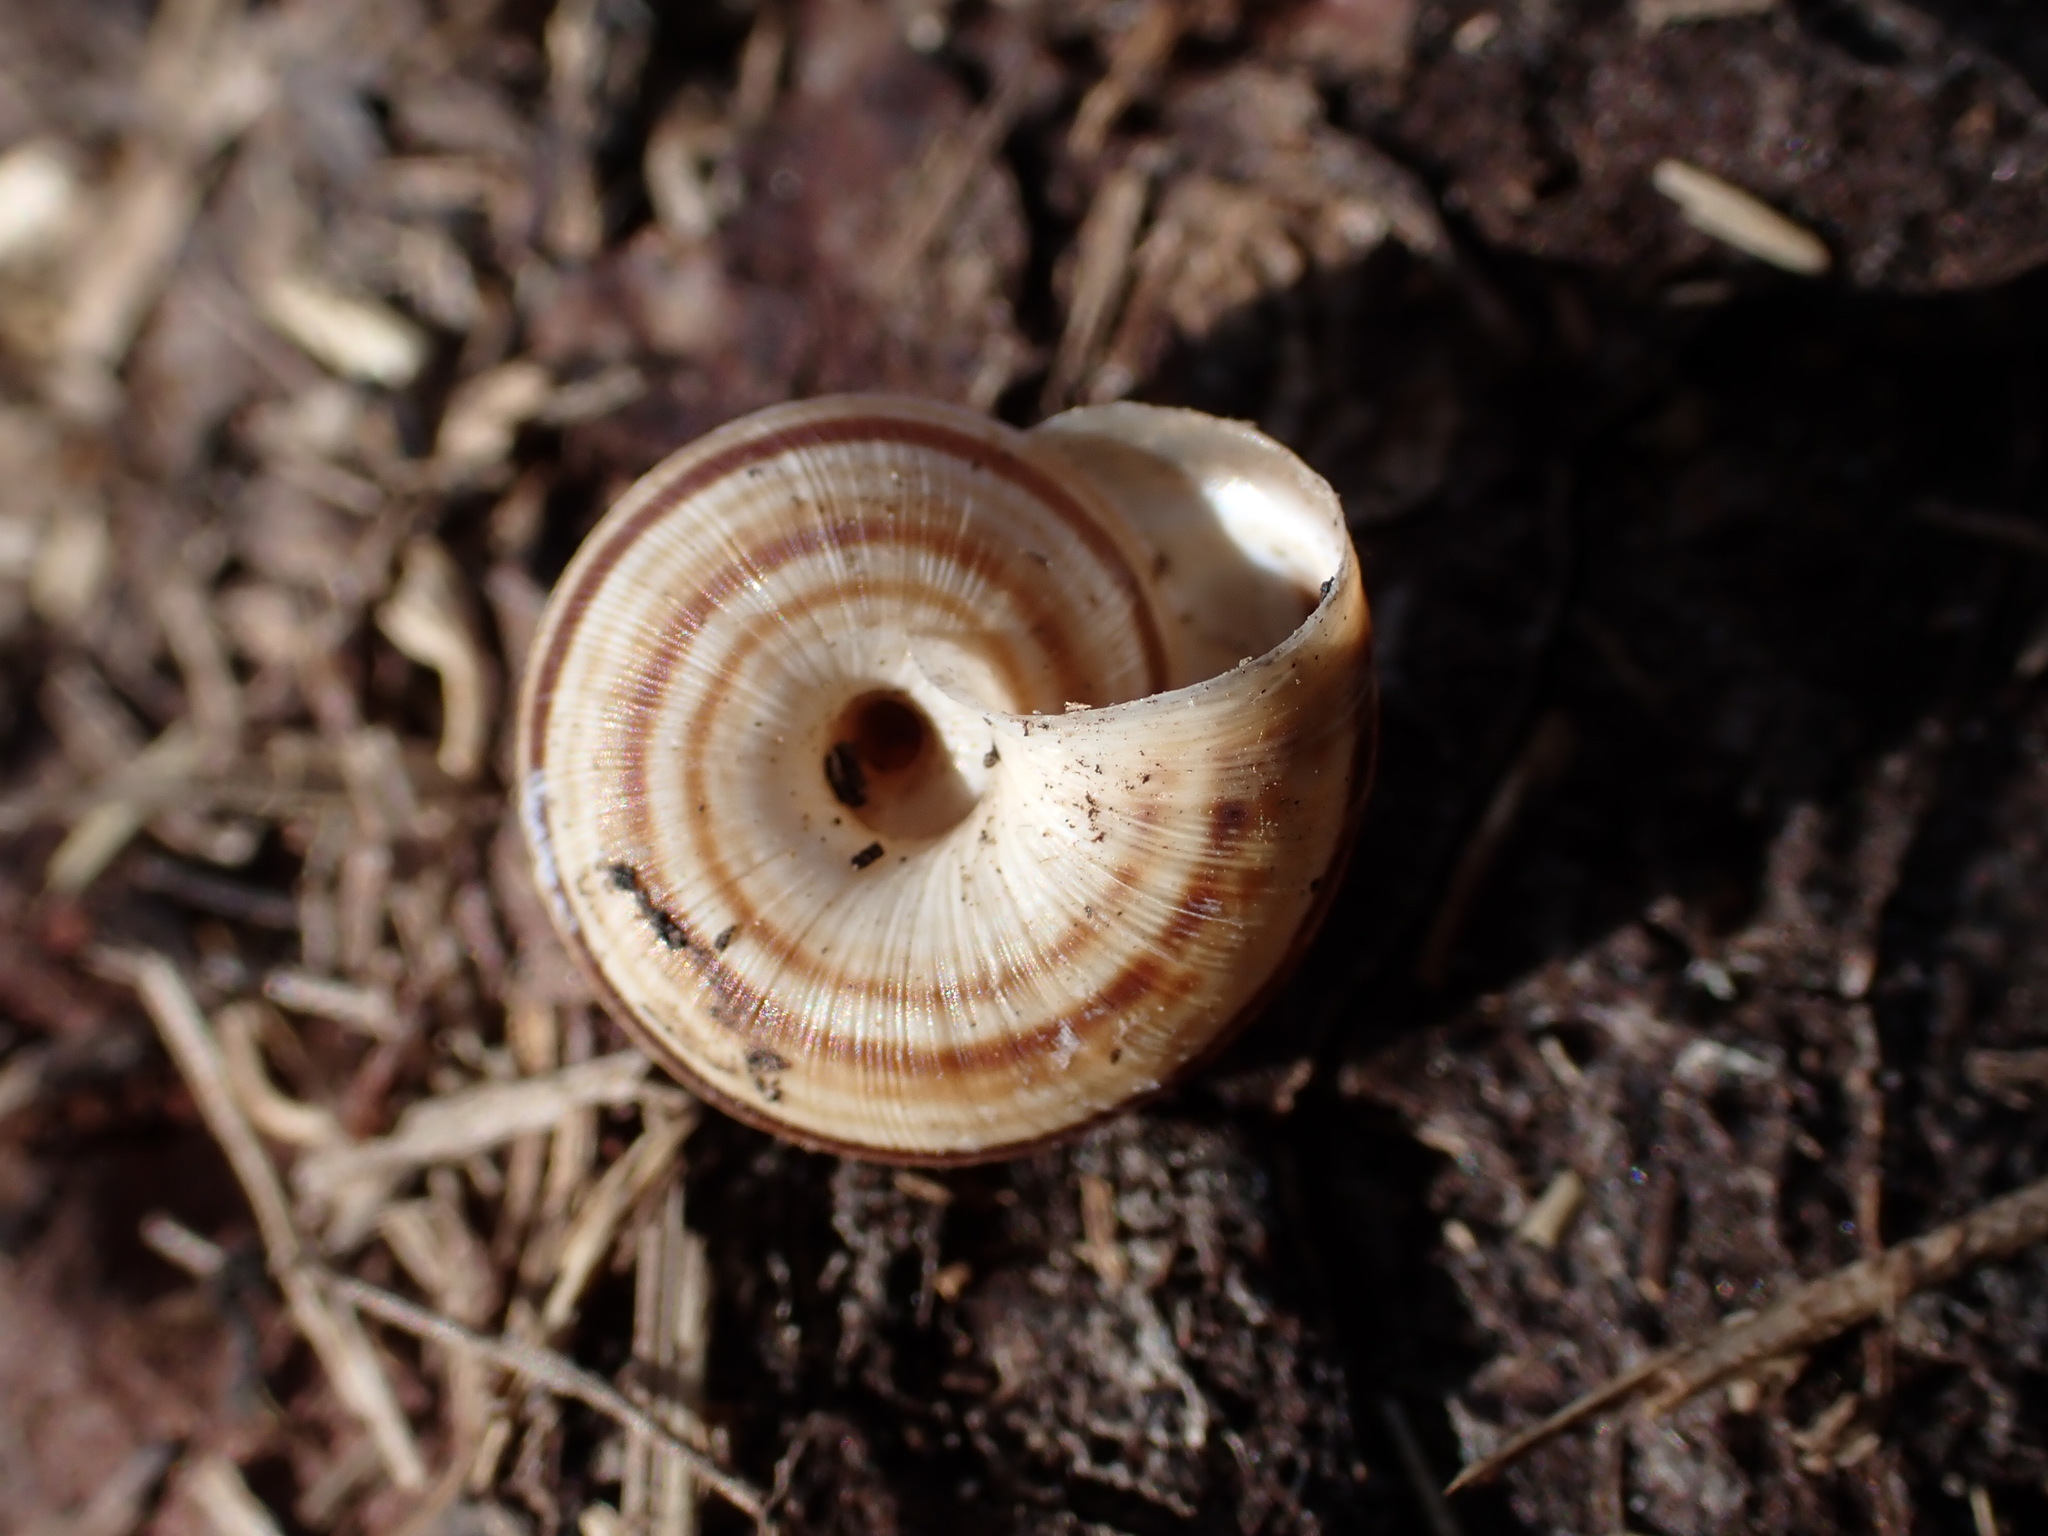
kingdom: Animalia
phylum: Mollusca
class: Gastropoda
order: Stylommatophora
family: Geomitridae
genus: Backeljaia
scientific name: Backeljaia gigaxii
